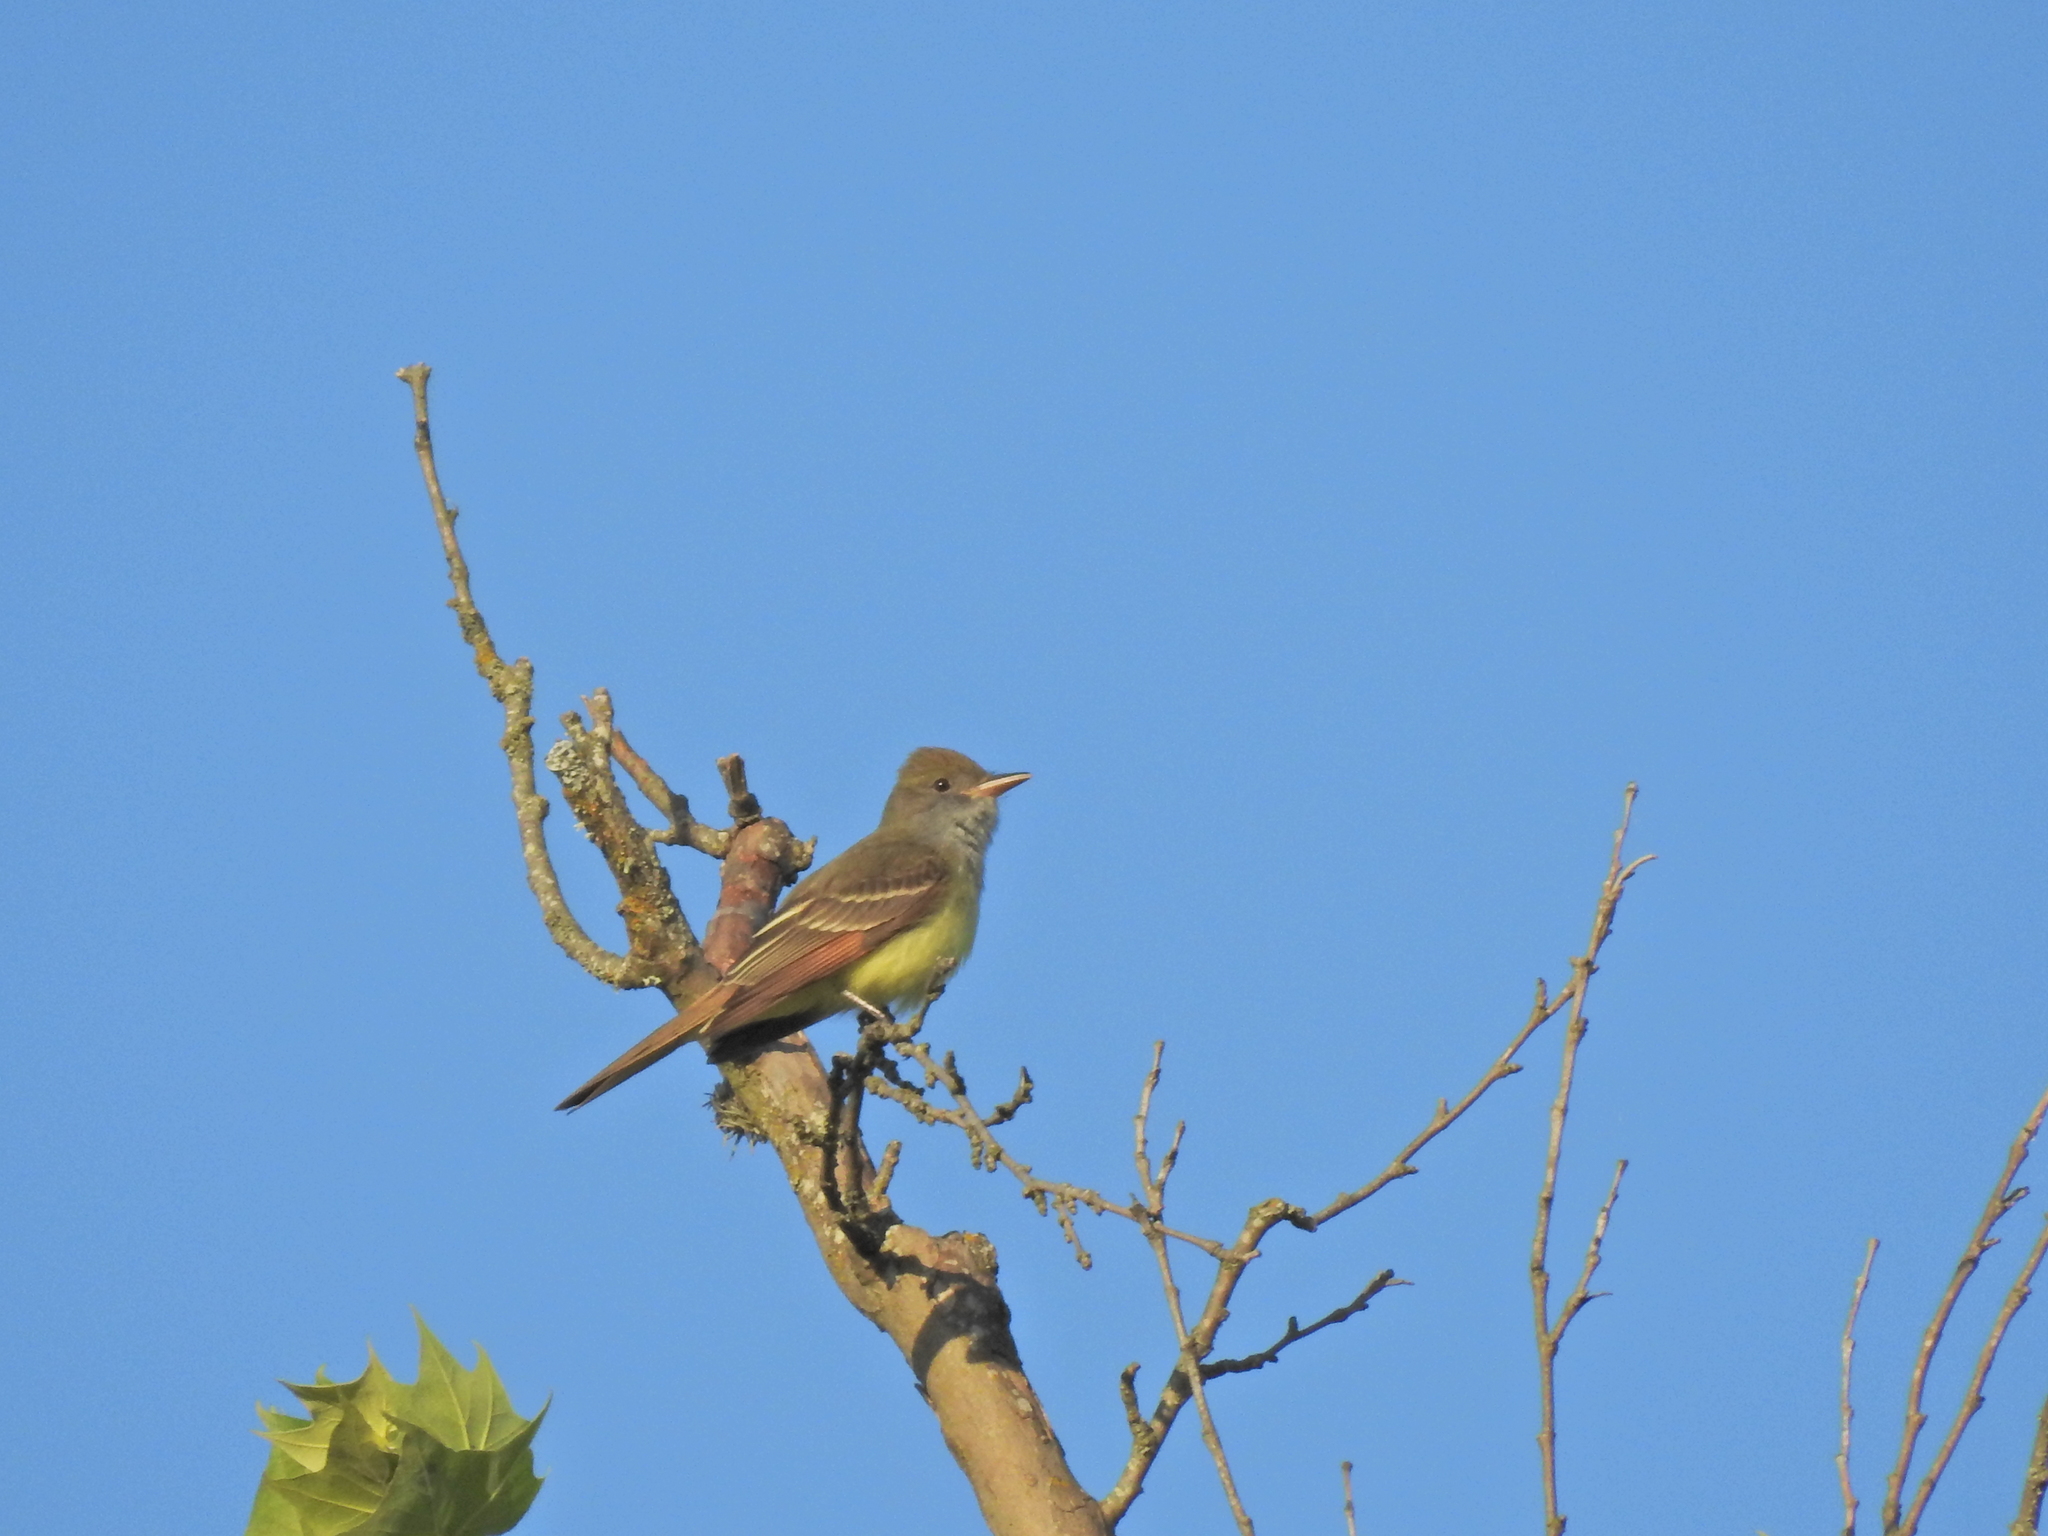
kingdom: Animalia
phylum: Chordata
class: Aves
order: Passeriformes
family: Tyrannidae
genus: Myiarchus
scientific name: Myiarchus crinitus
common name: Great crested flycatcher
